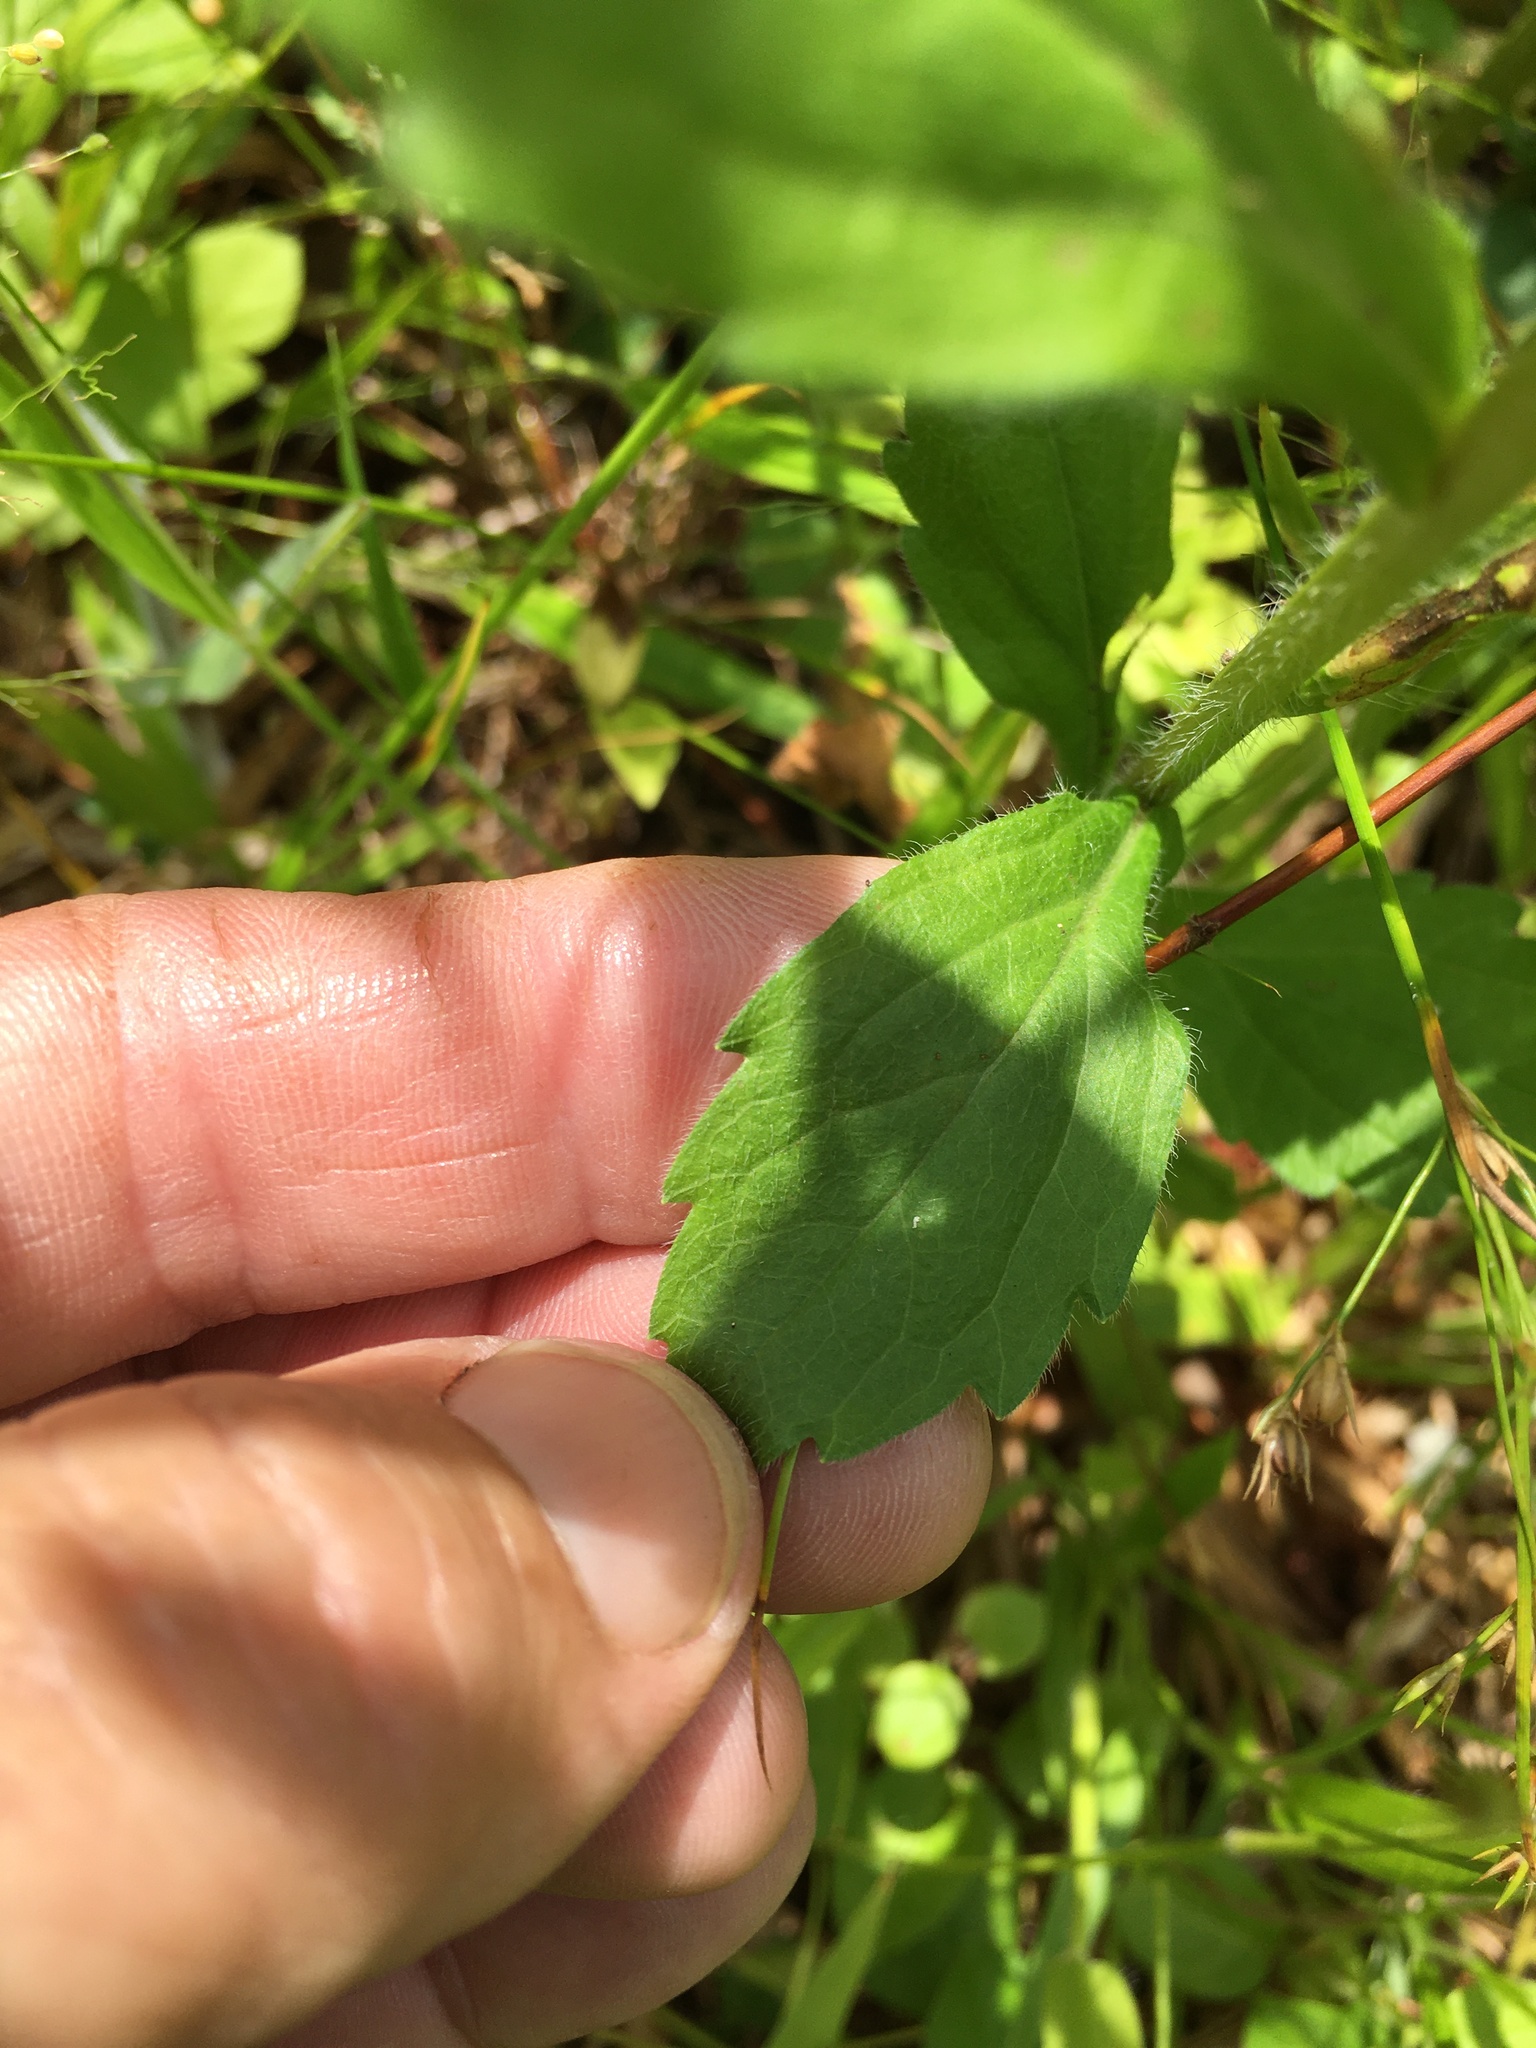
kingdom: Plantae
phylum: Tracheophyta
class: Magnoliopsida
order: Asterales
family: Asteraceae
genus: Erigeron
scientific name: Erigeron annuus
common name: Tall fleabane
